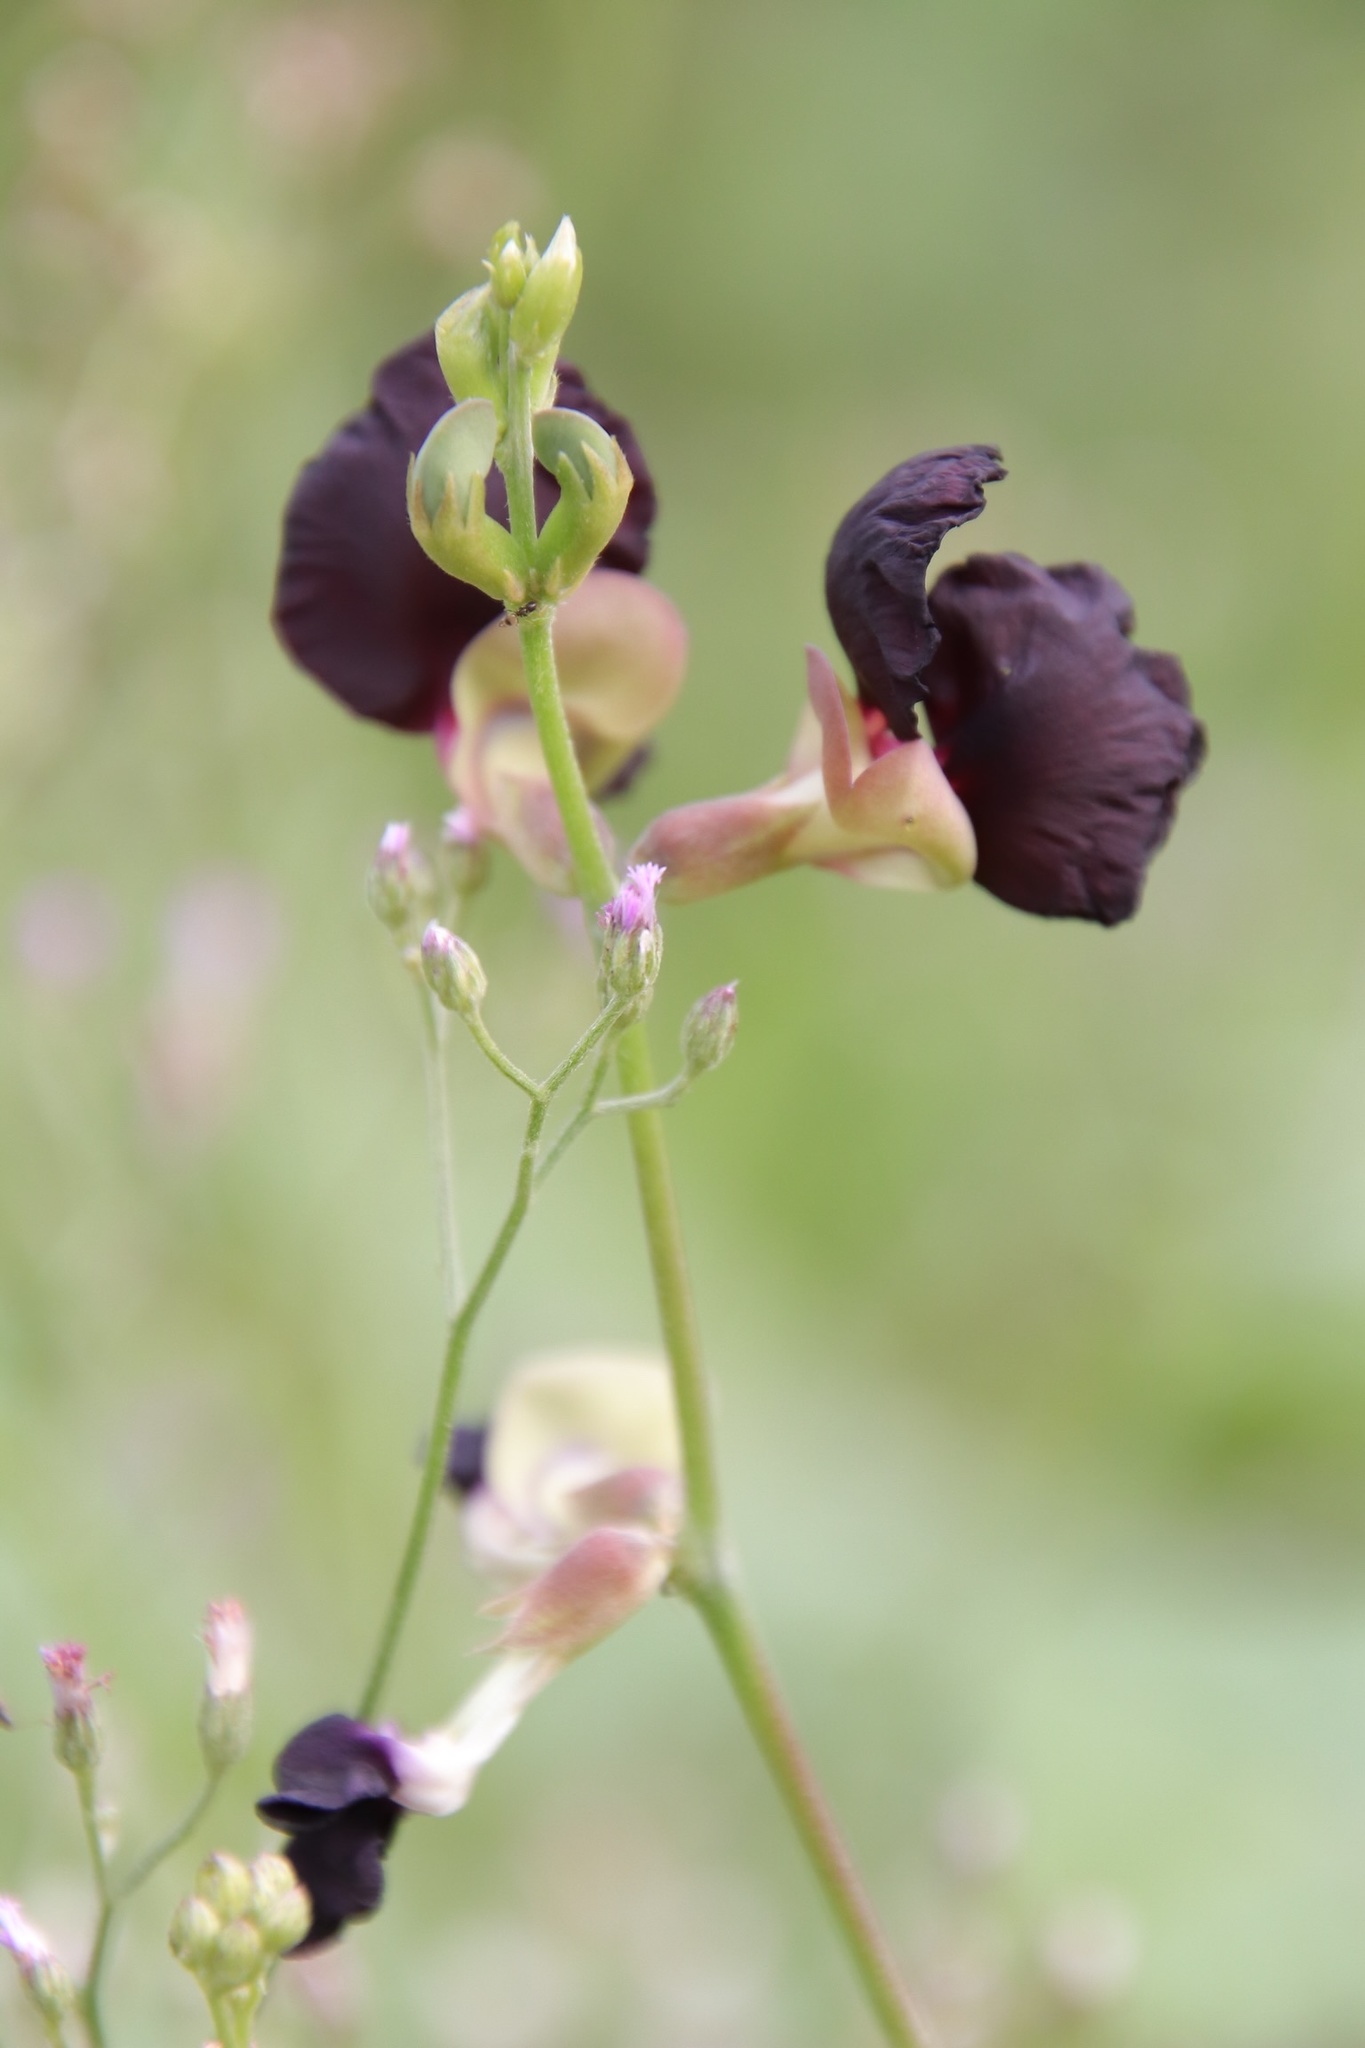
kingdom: Plantae
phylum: Tracheophyta
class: Magnoliopsida
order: Fabales
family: Fabaceae
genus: Macroptilium
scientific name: Macroptilium atropurpureum
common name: Purple bushbean
